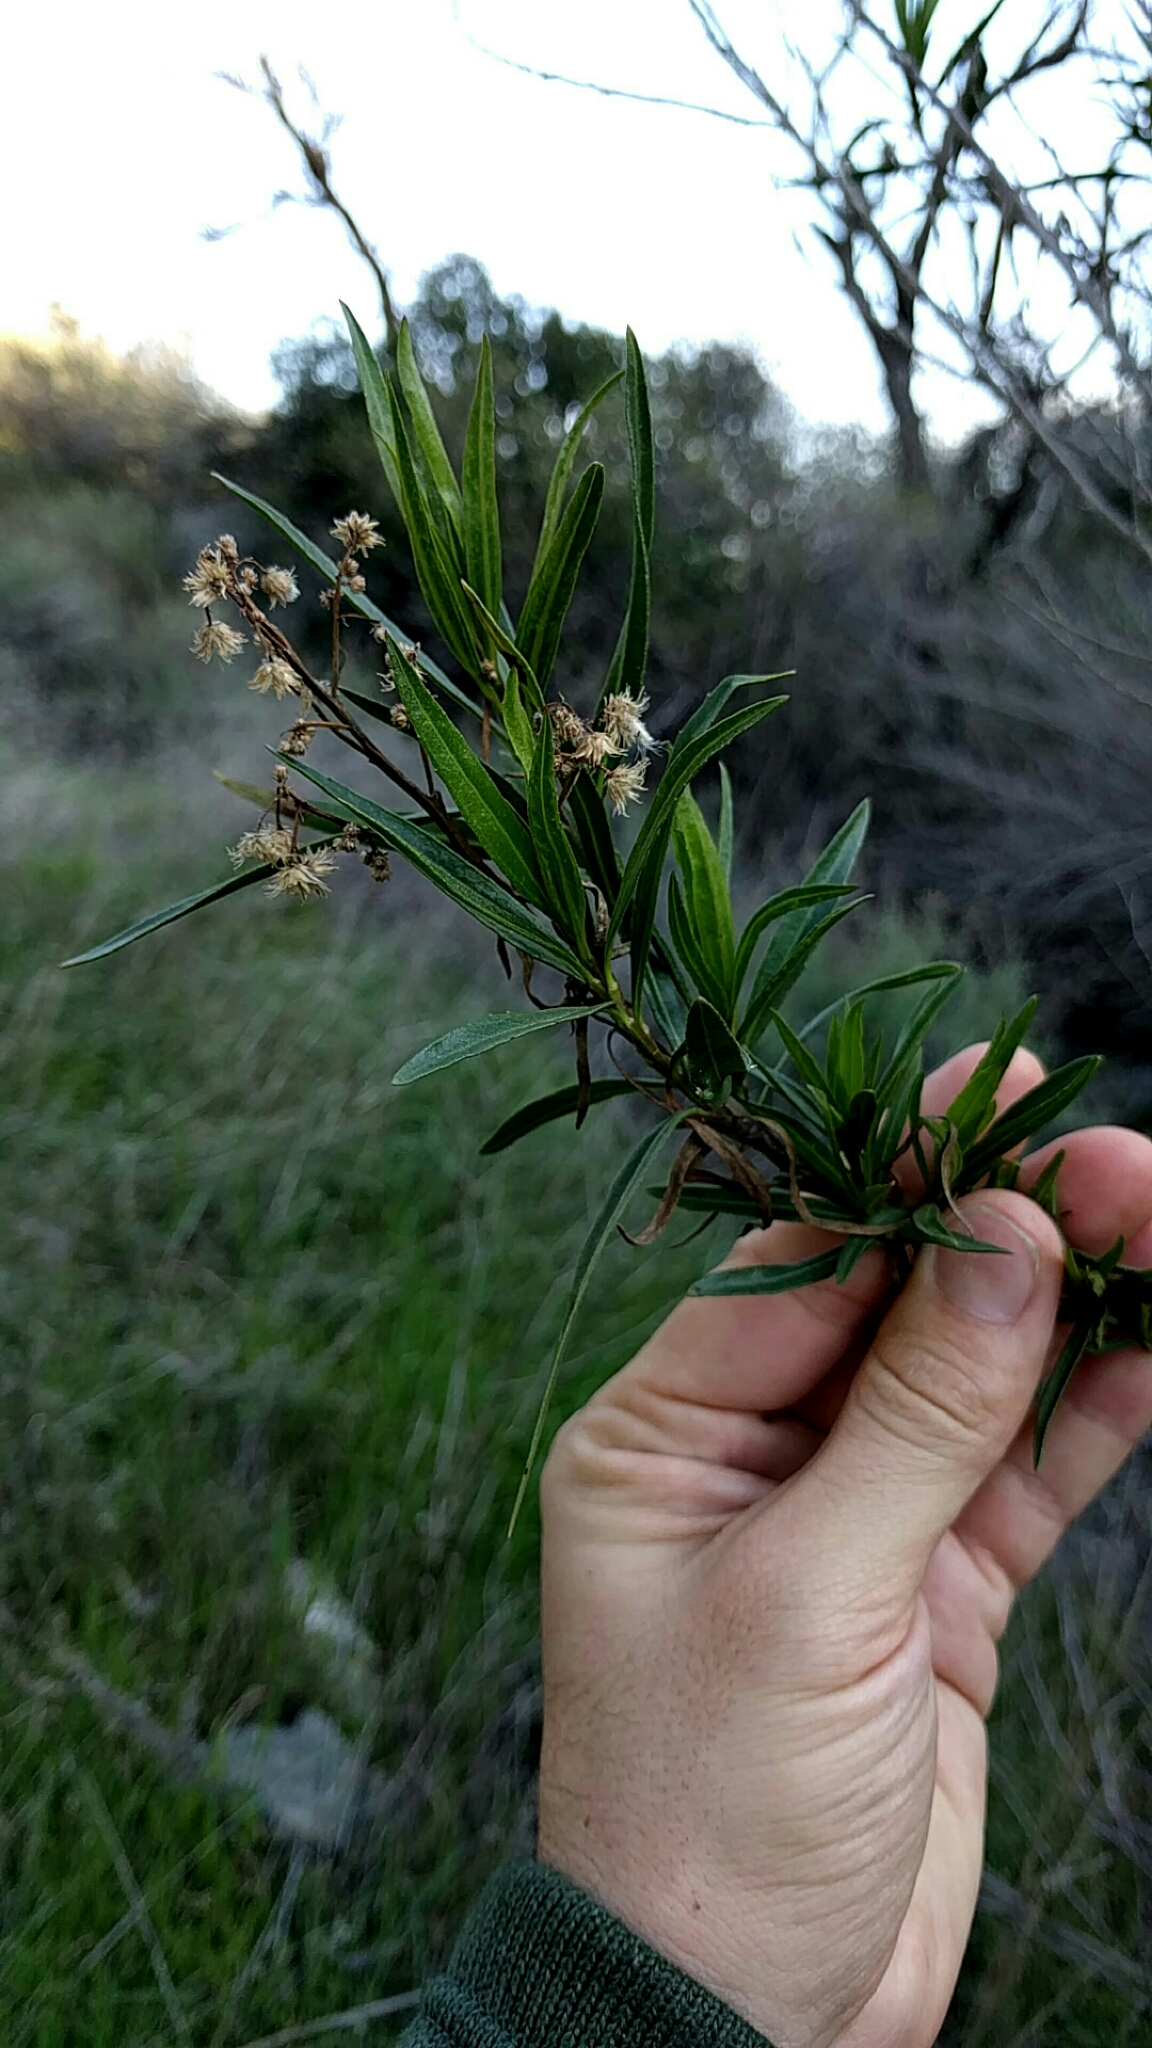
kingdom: Plantae
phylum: Tracheophyta
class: Magnoliopsida
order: Asterales
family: Asteraceae
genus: Baccharis
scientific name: Baccharis salicifolia
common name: Sticky baccharis
